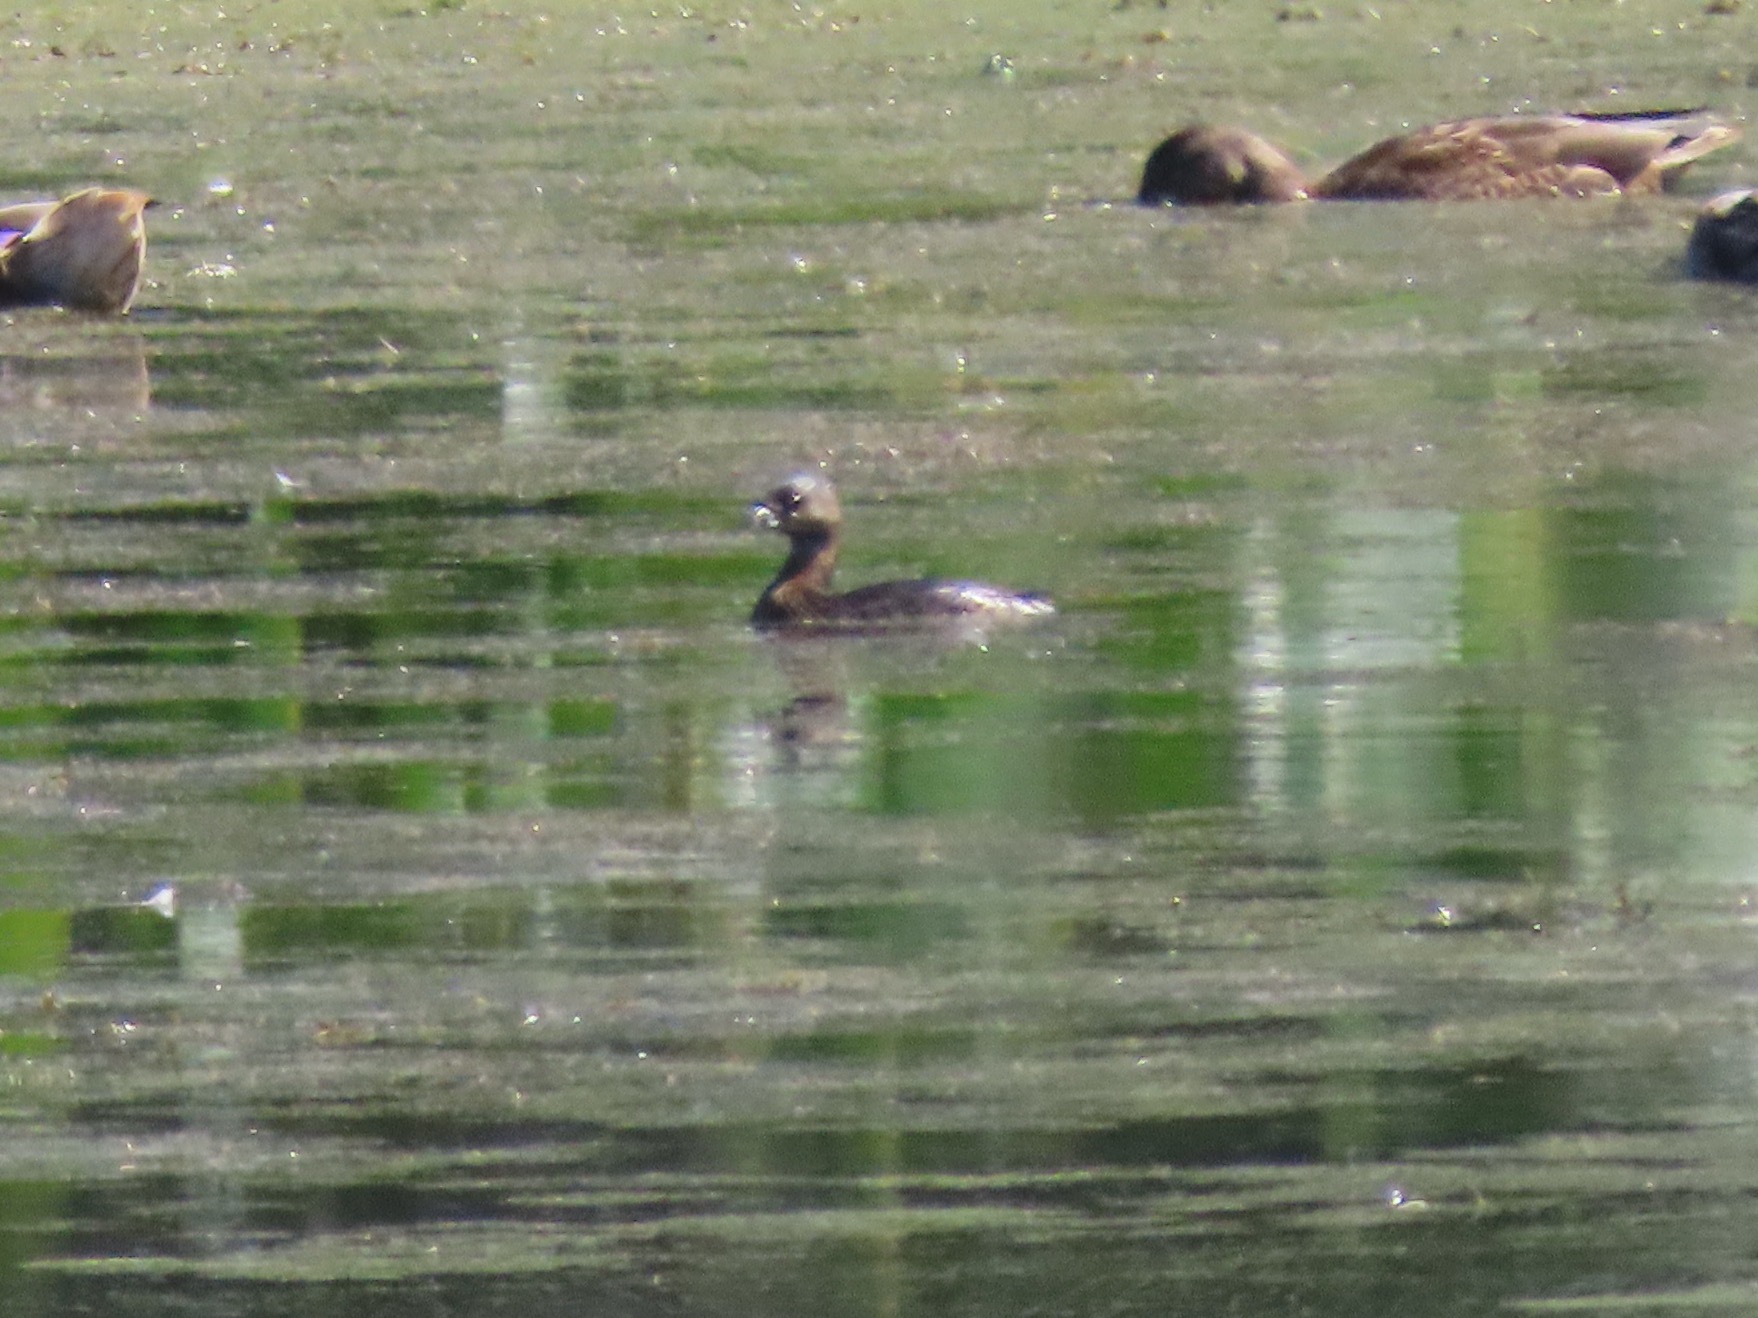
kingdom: Animalia
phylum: Chordata
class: Aves
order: Podicipediformes
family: Podicipedidae
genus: Podilymbus
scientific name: Podilymbus podiceps
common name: Pied-billed grebe
